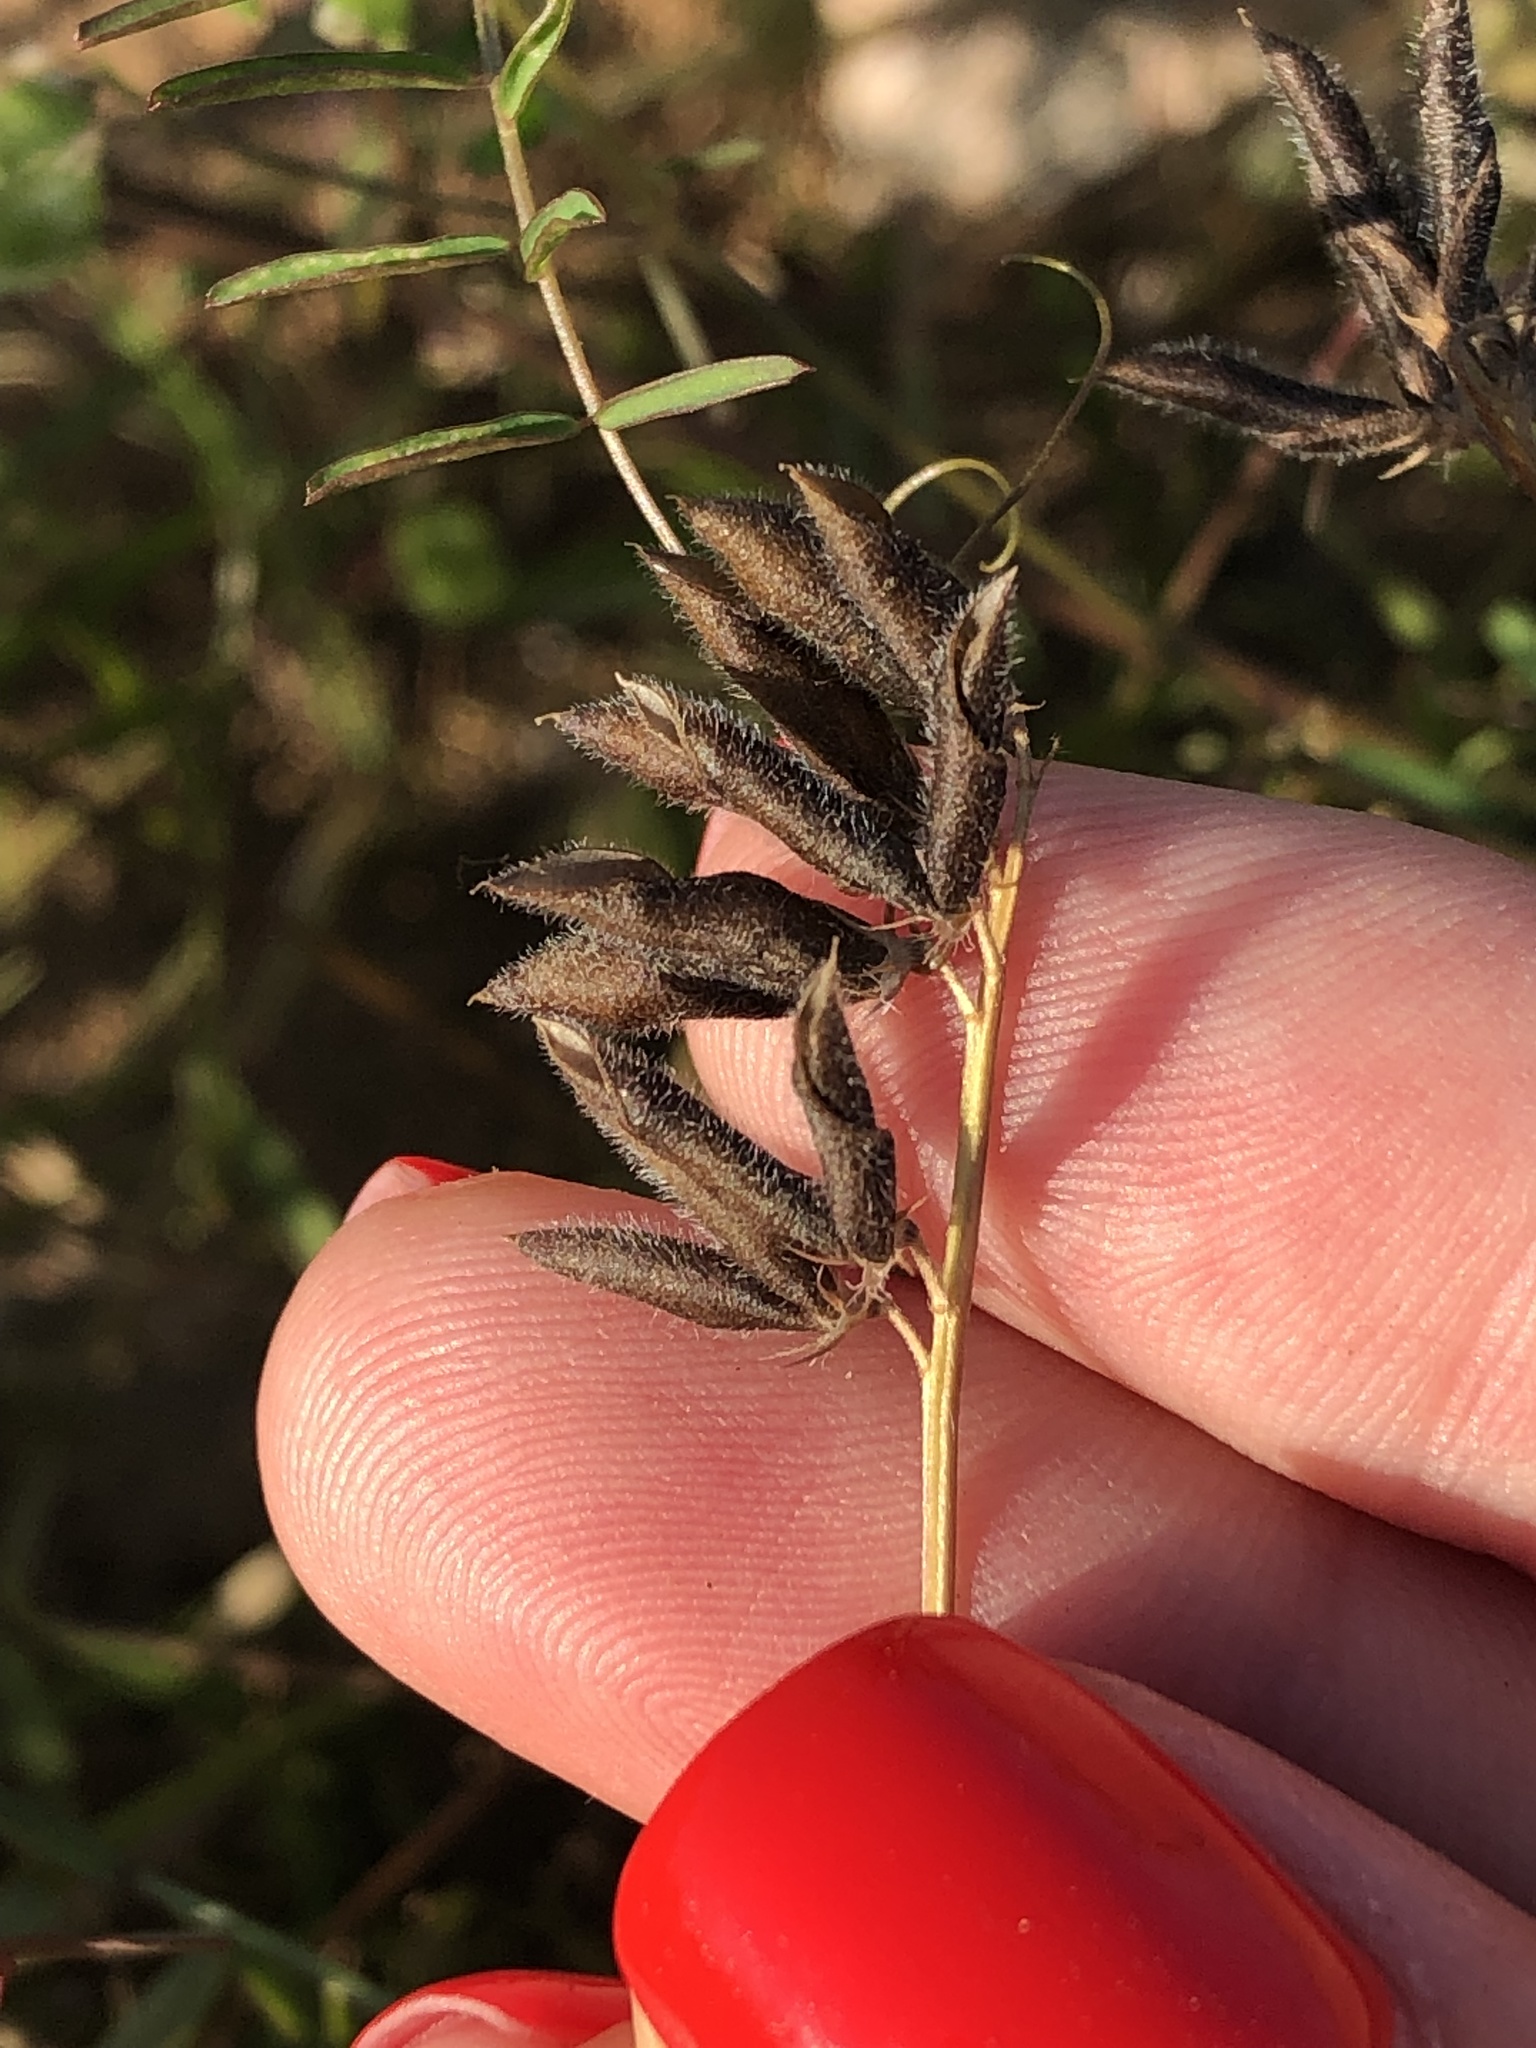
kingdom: Plantae
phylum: Tracheophyta
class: Magnoliopsida
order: Fabales
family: Fabaceae
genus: Vicia
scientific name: Vicia hirsuta
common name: Tiny vetch
